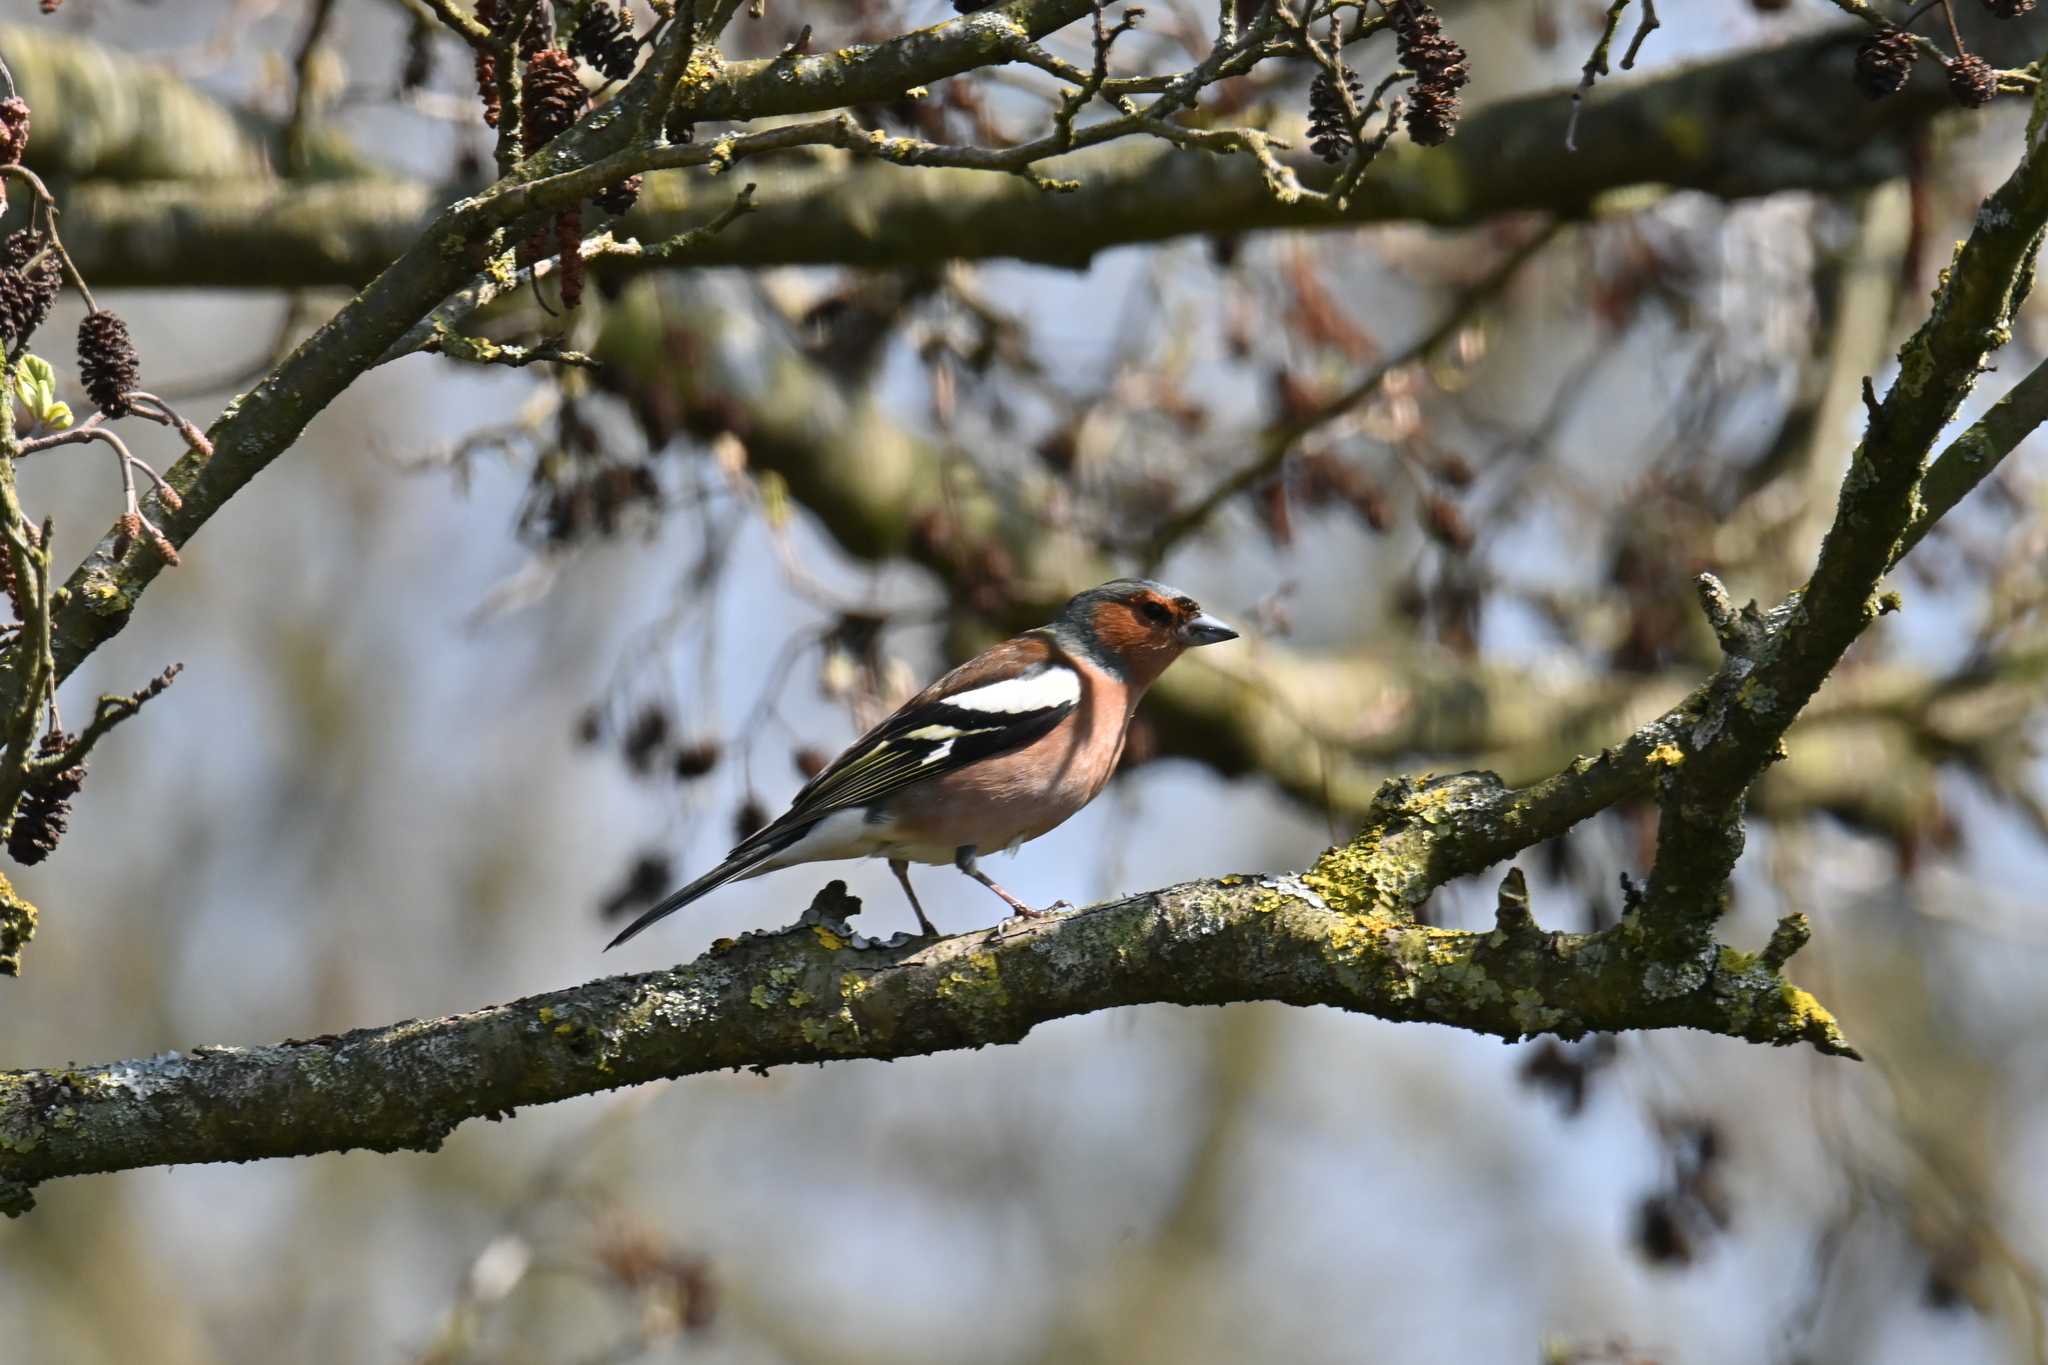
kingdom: Animalia
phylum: Chordata
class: Aves
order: Passeriformes
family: Fringillidae
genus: Fringilla
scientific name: Fringilla coelebs
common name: Common chaffinch
